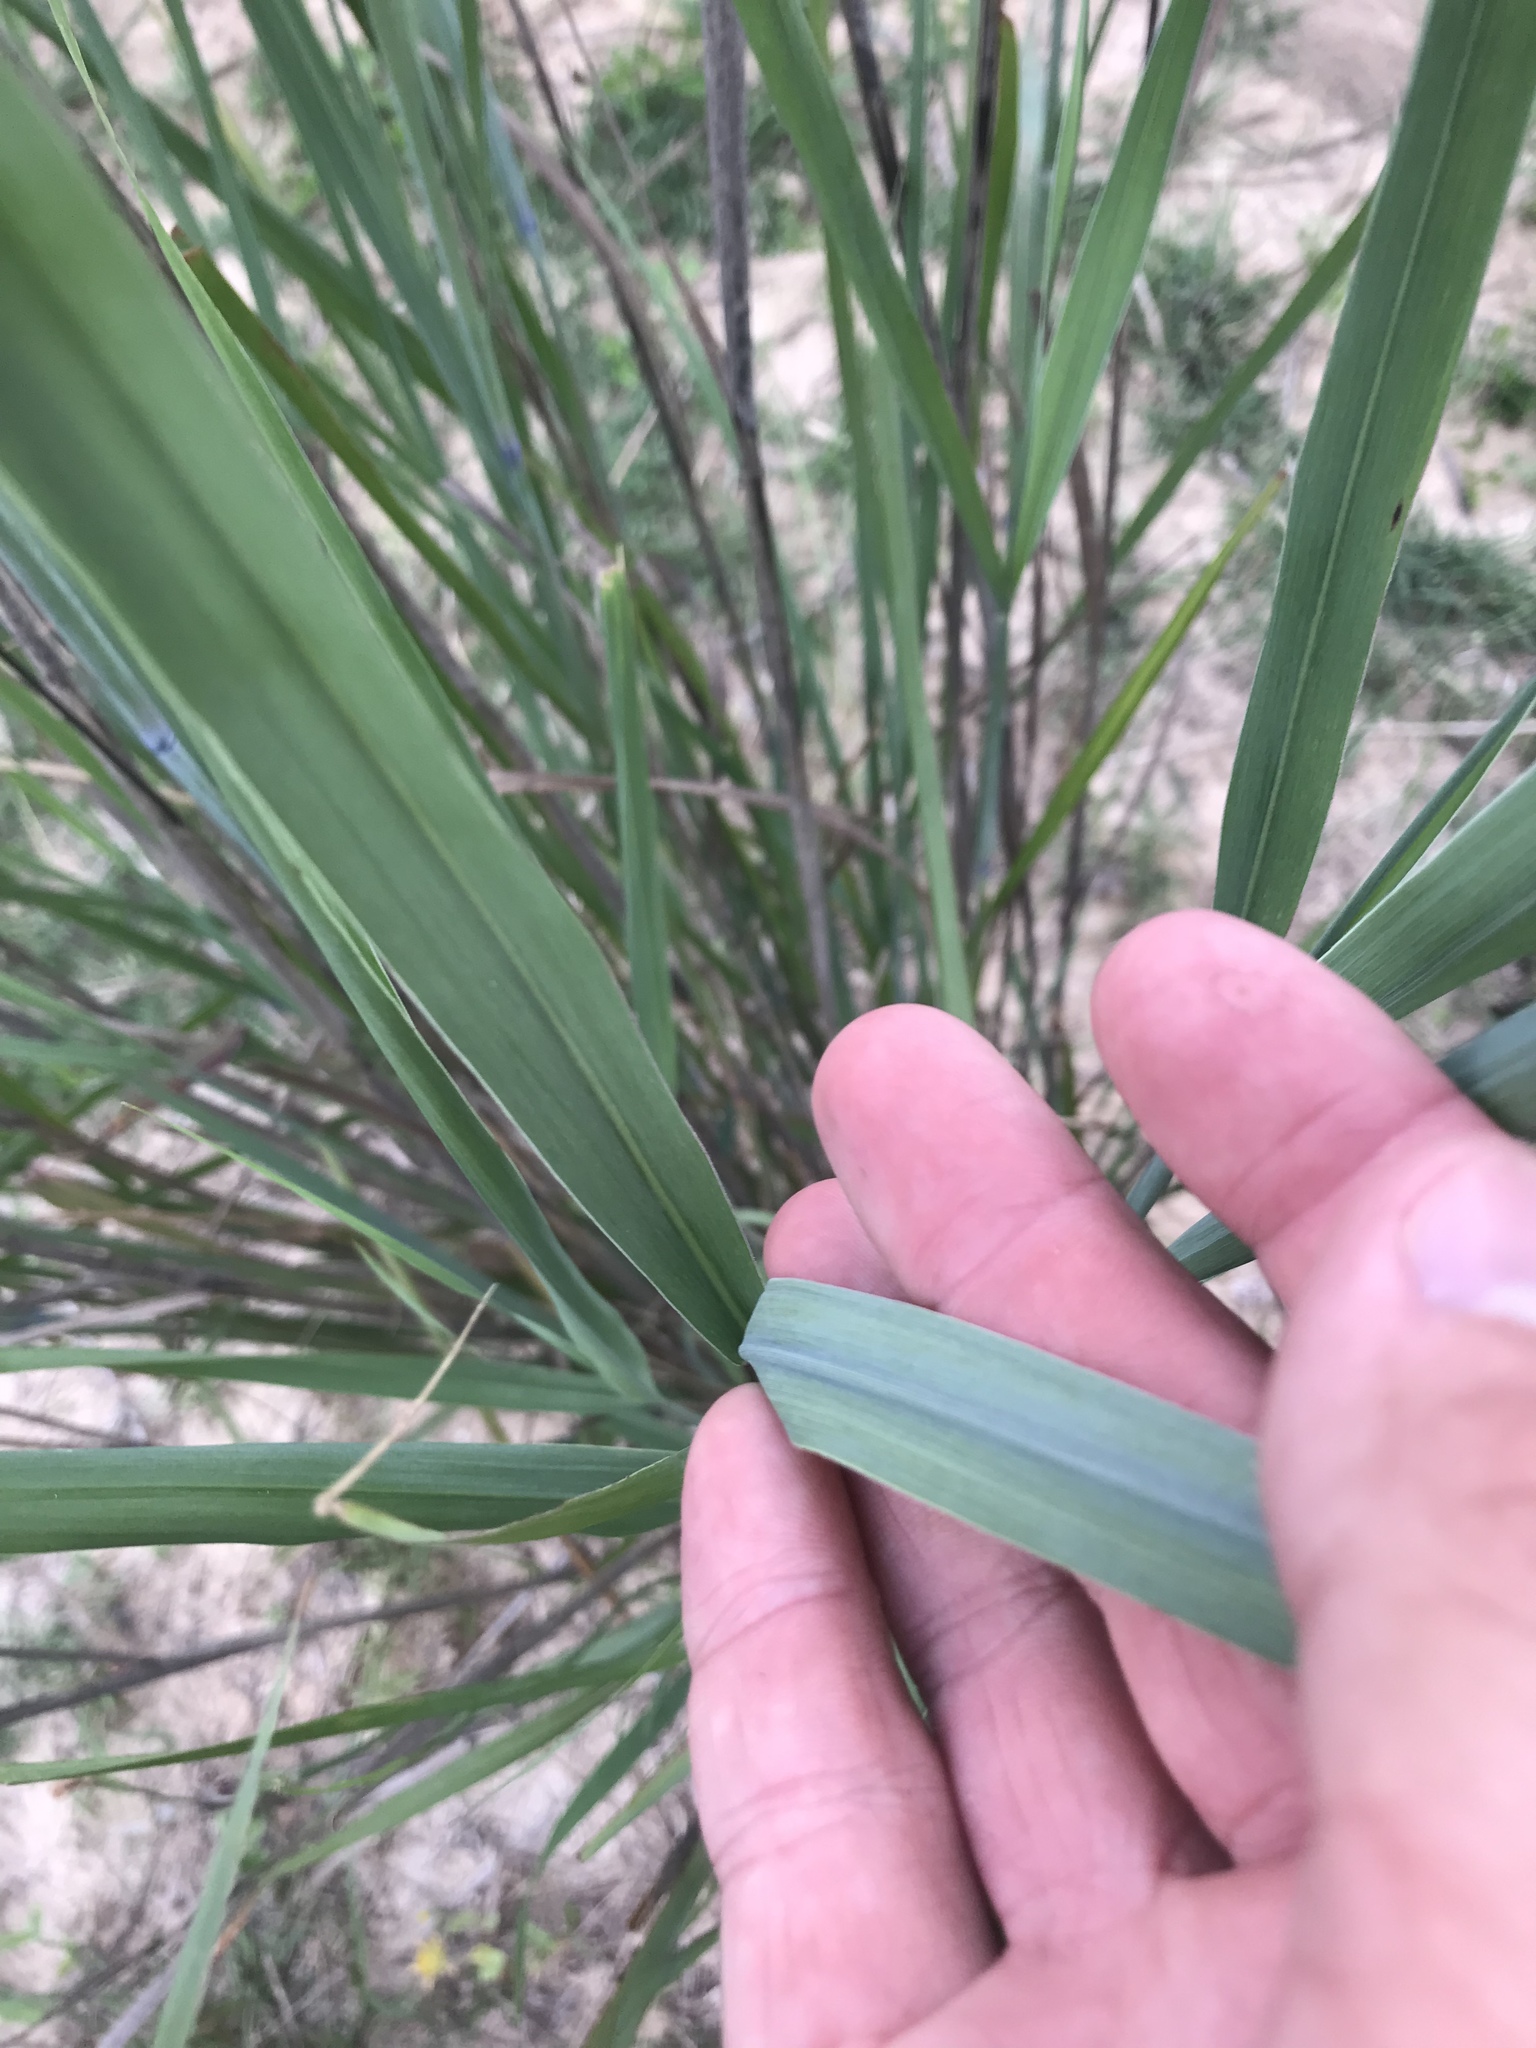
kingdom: Plantae
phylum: Tracheophyta
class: Liliopsida
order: Poales
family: Poaceae
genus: Panicum
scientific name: Panicum virgatum
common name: Switchgrass
